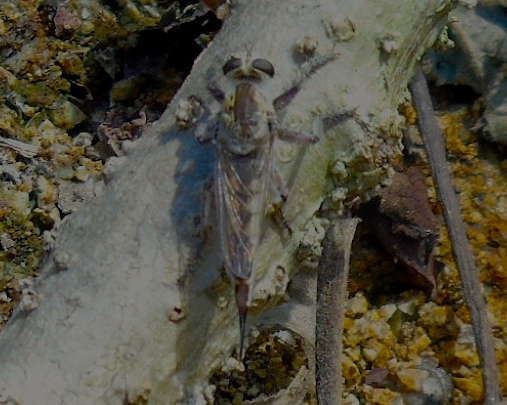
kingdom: Animalia
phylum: Arthropoda
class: Insecta
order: Diptera
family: Asilidae
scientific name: Asilidae
